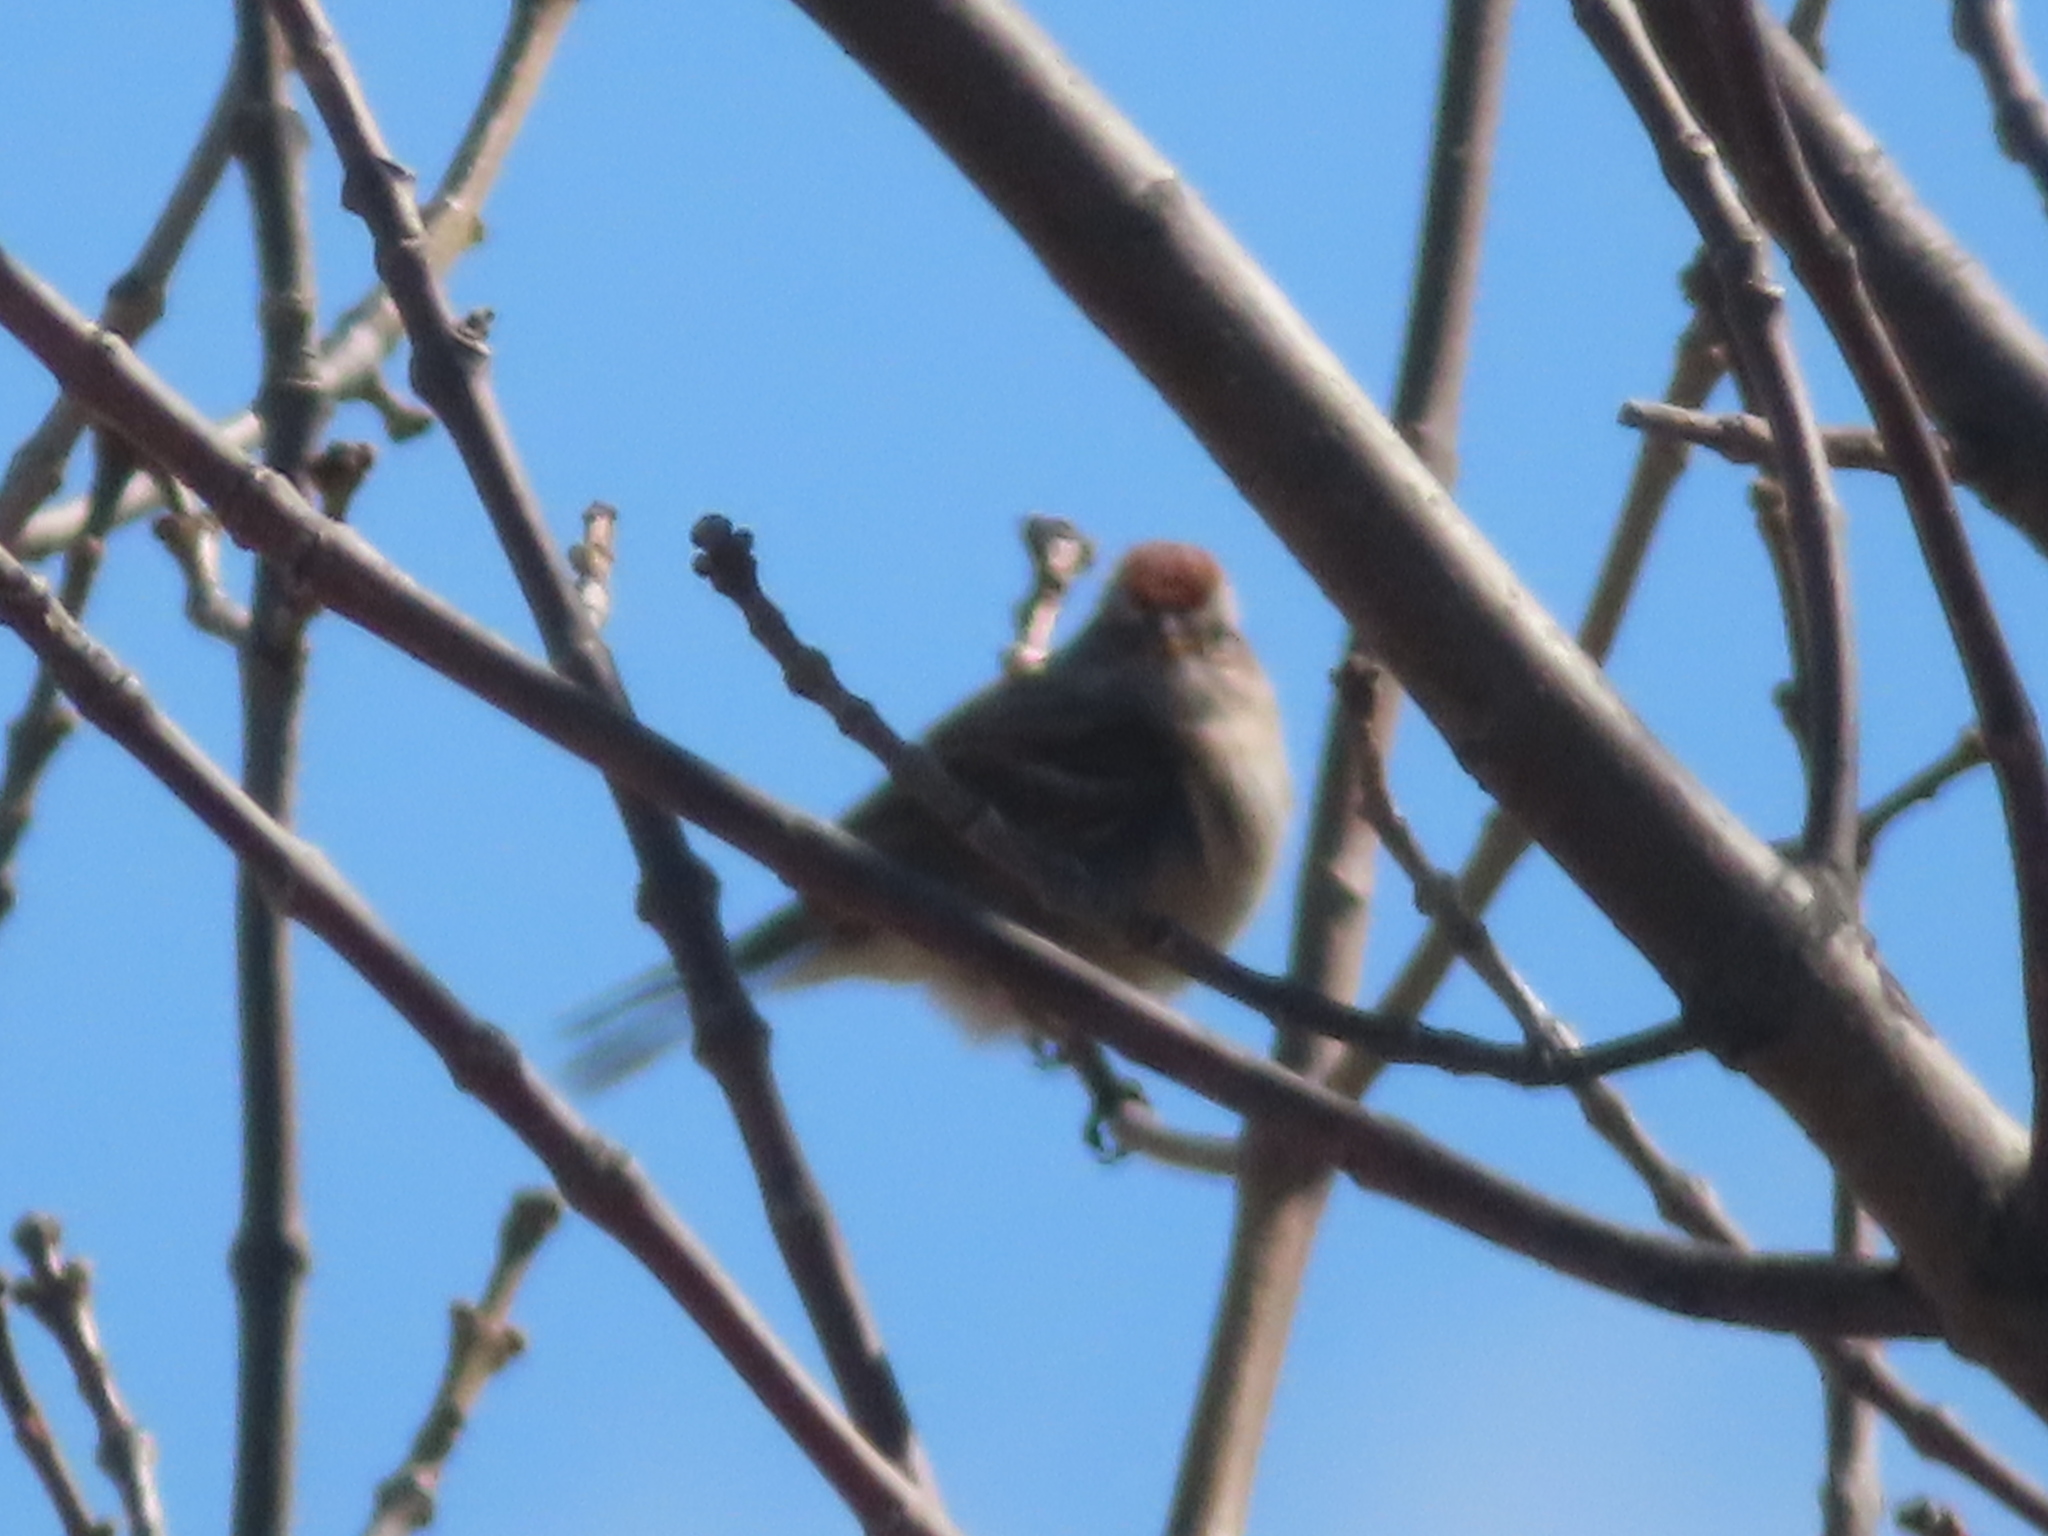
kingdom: Animalia
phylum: Chordata
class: Aves
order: Passeriformes
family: Passerellidae
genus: Spizelloides
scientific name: Spizelloides arborea
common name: American tree sparrow
